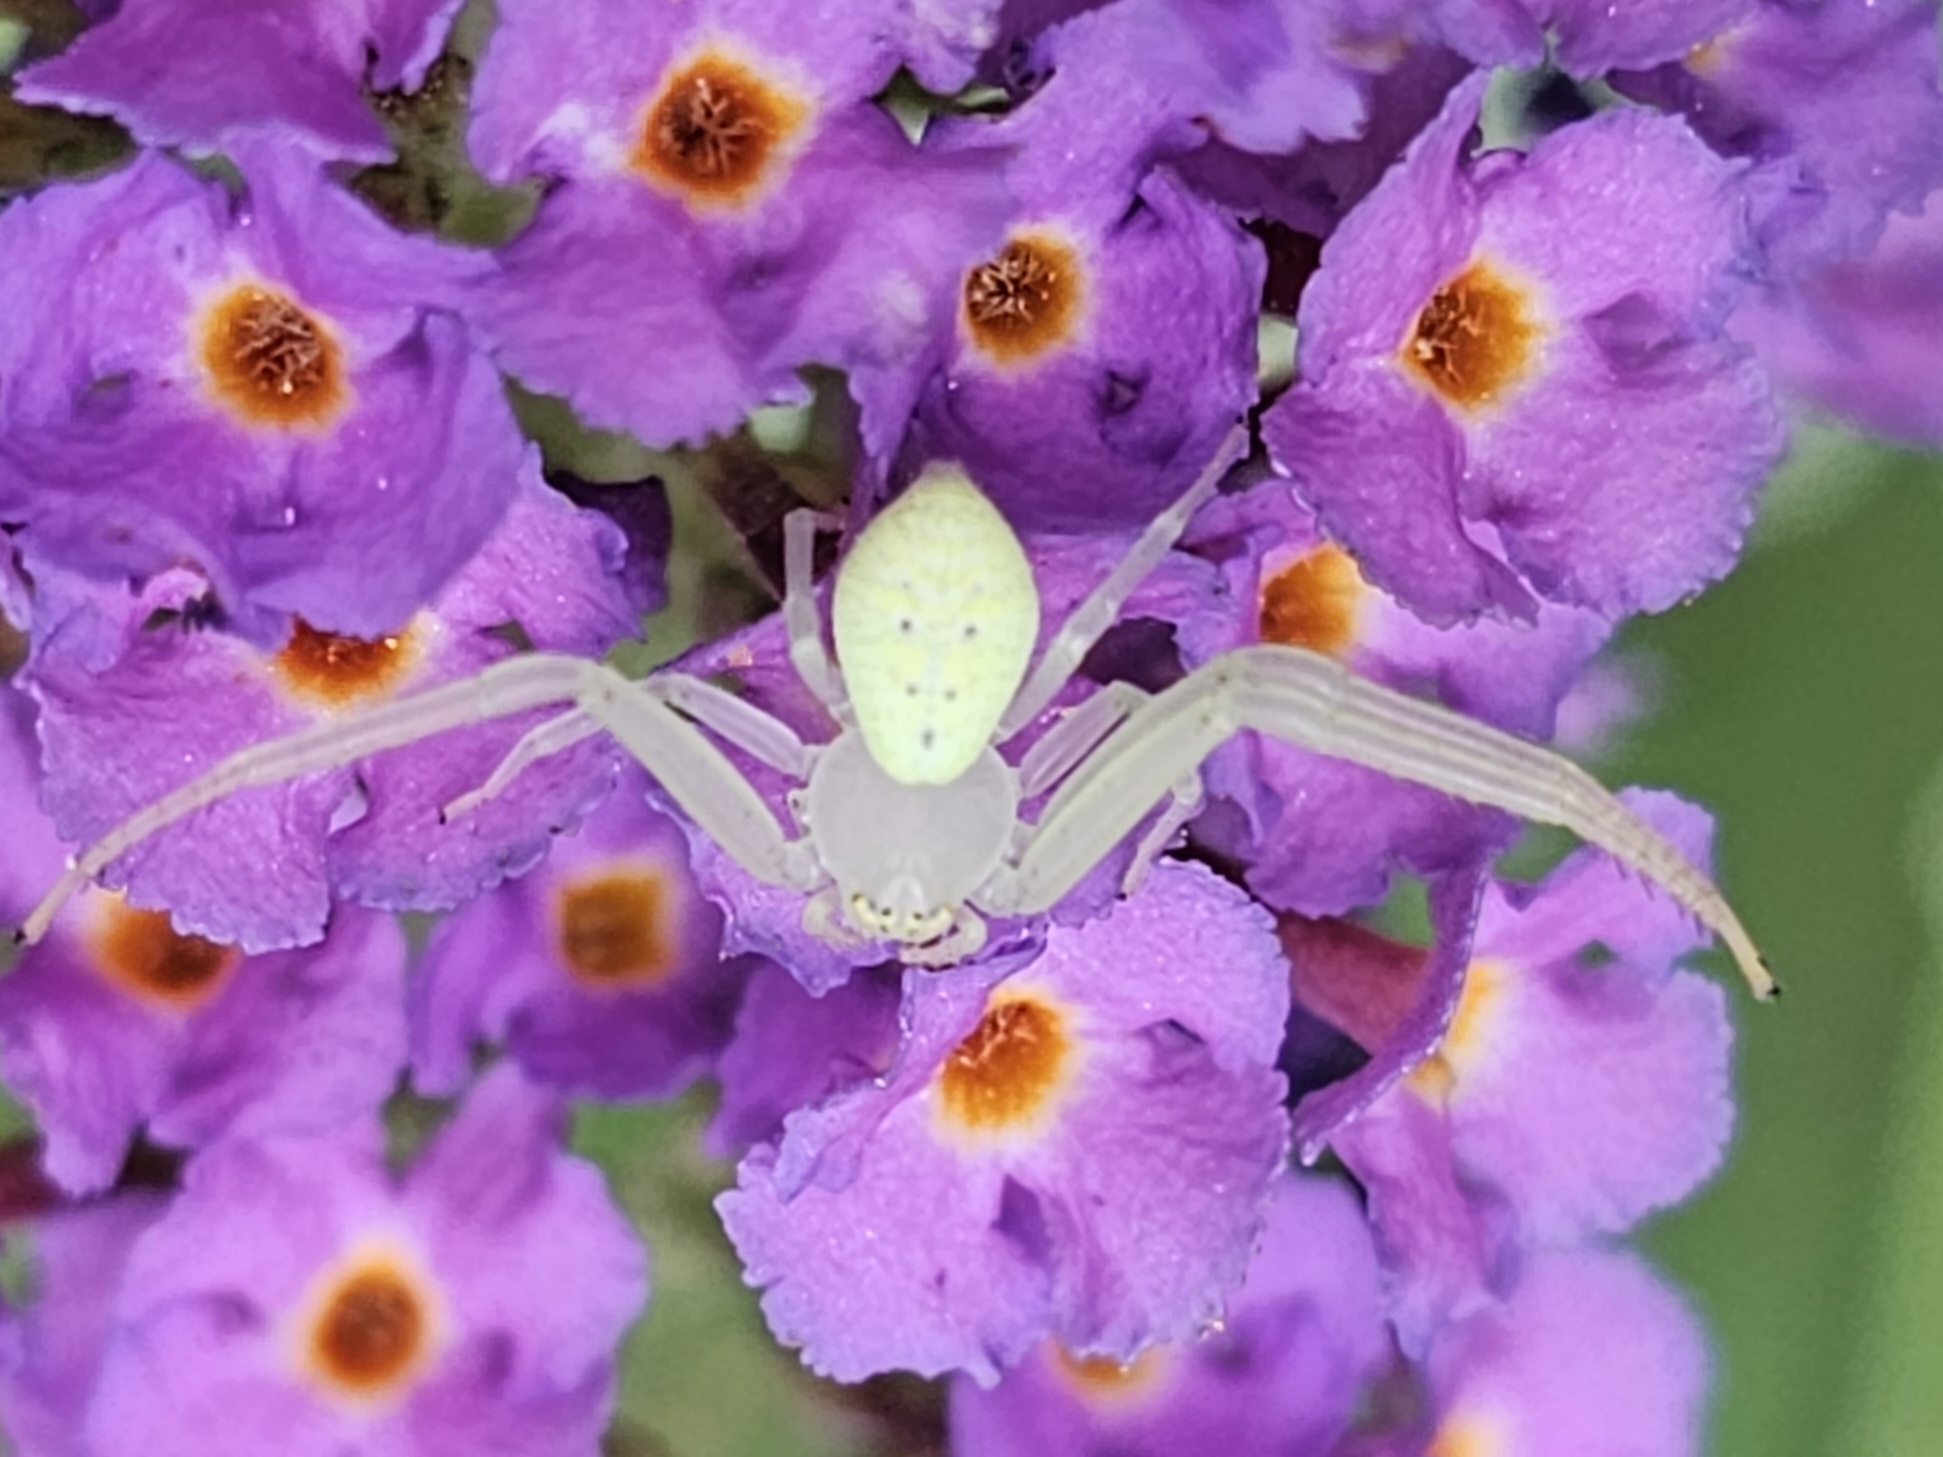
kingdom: Animalia
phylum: Arthropoda
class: Arachnida
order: Araneae
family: Thomisidae
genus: Misumessus
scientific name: Misumessus oblongus
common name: American green crab spider
